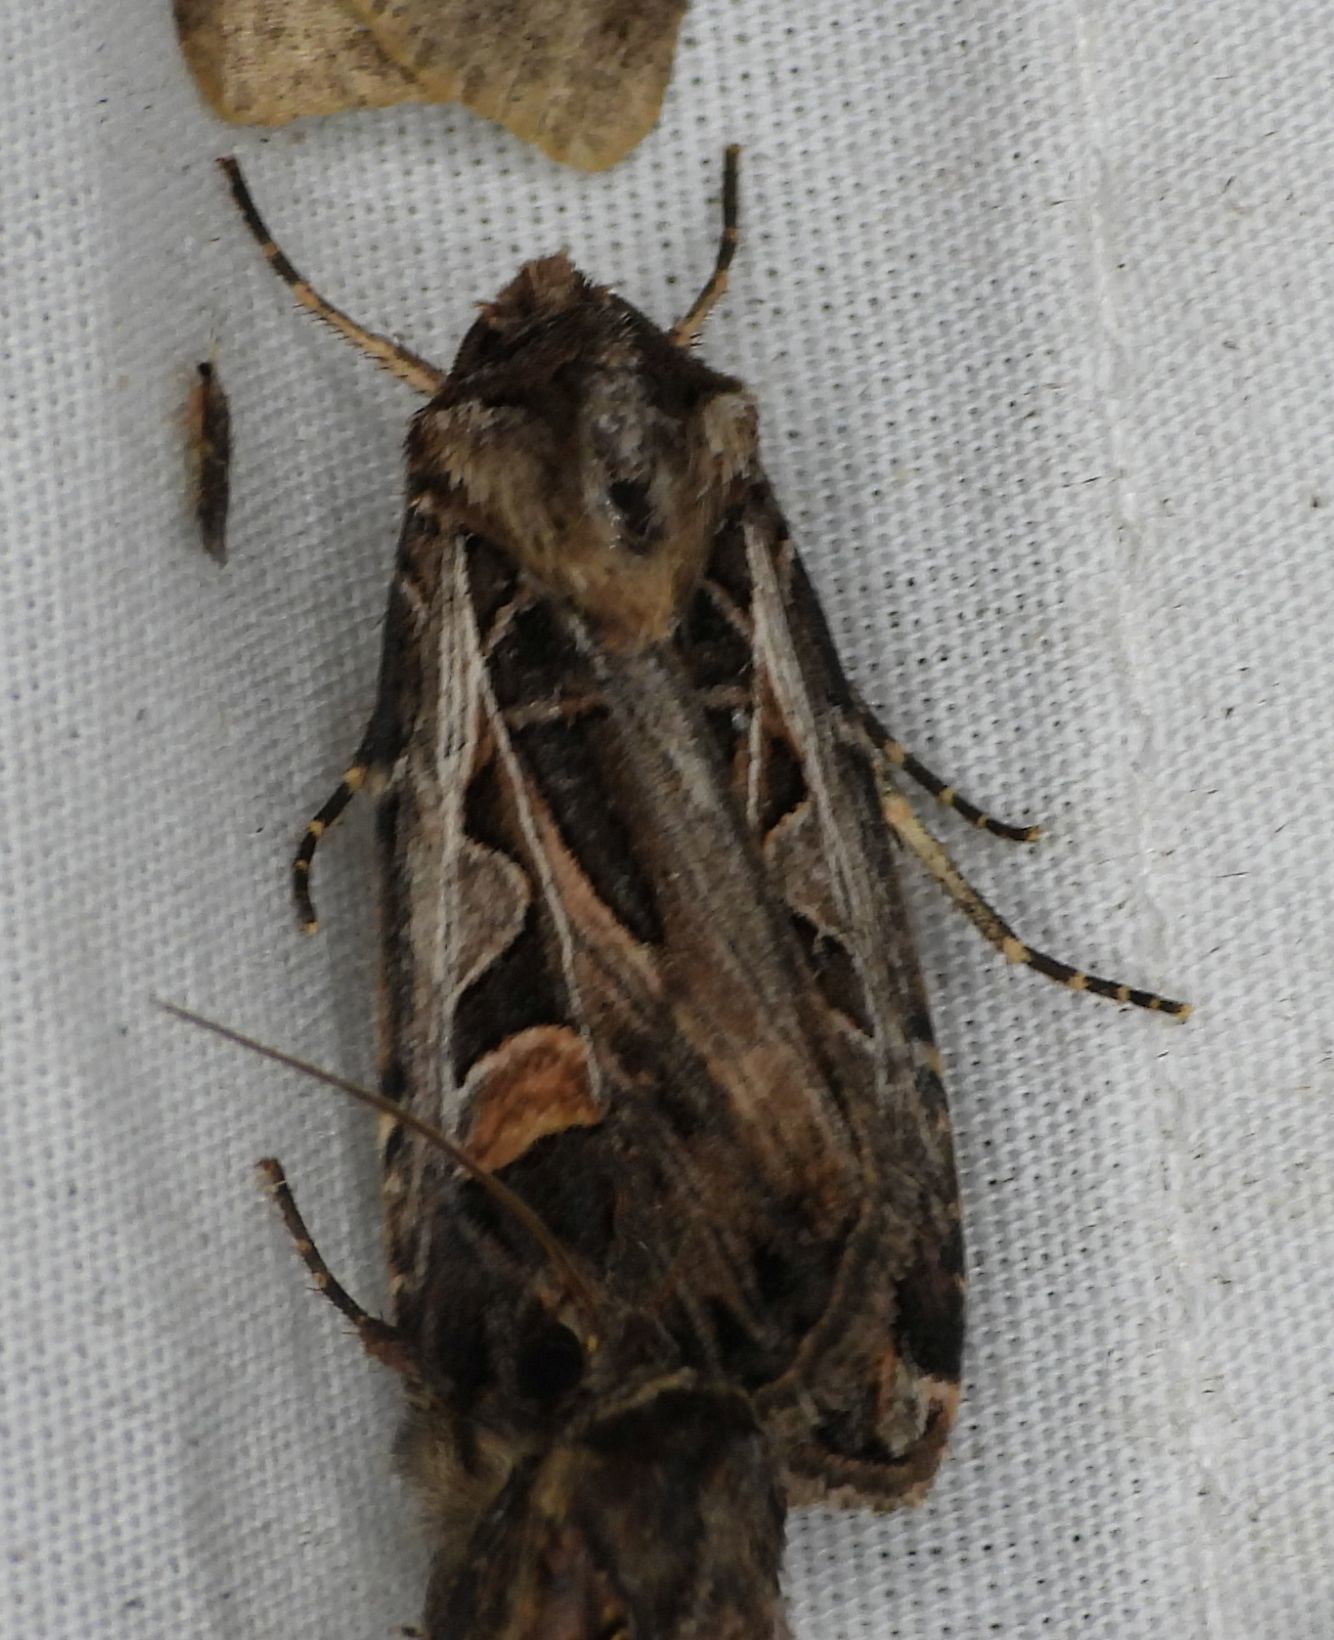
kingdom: Animalia
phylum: Arthropoda
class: Insecta
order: Lepidoptera
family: Noctuidae
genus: Feltia
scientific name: Feltia jaculifera
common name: Dingy cutworm moth
